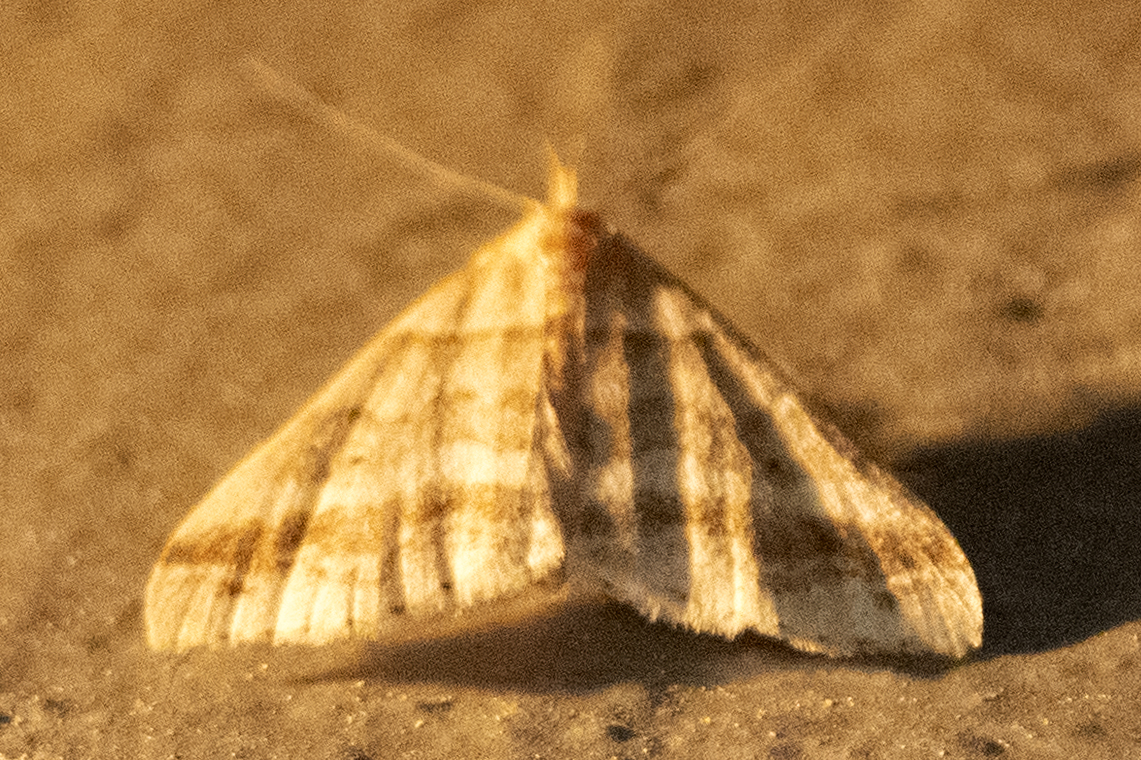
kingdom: Animalia
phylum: Arthropoda
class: Insecta
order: Lepidoptera
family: Erebidae
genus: Phaeolita
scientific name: Phaeolita pyramusalis
